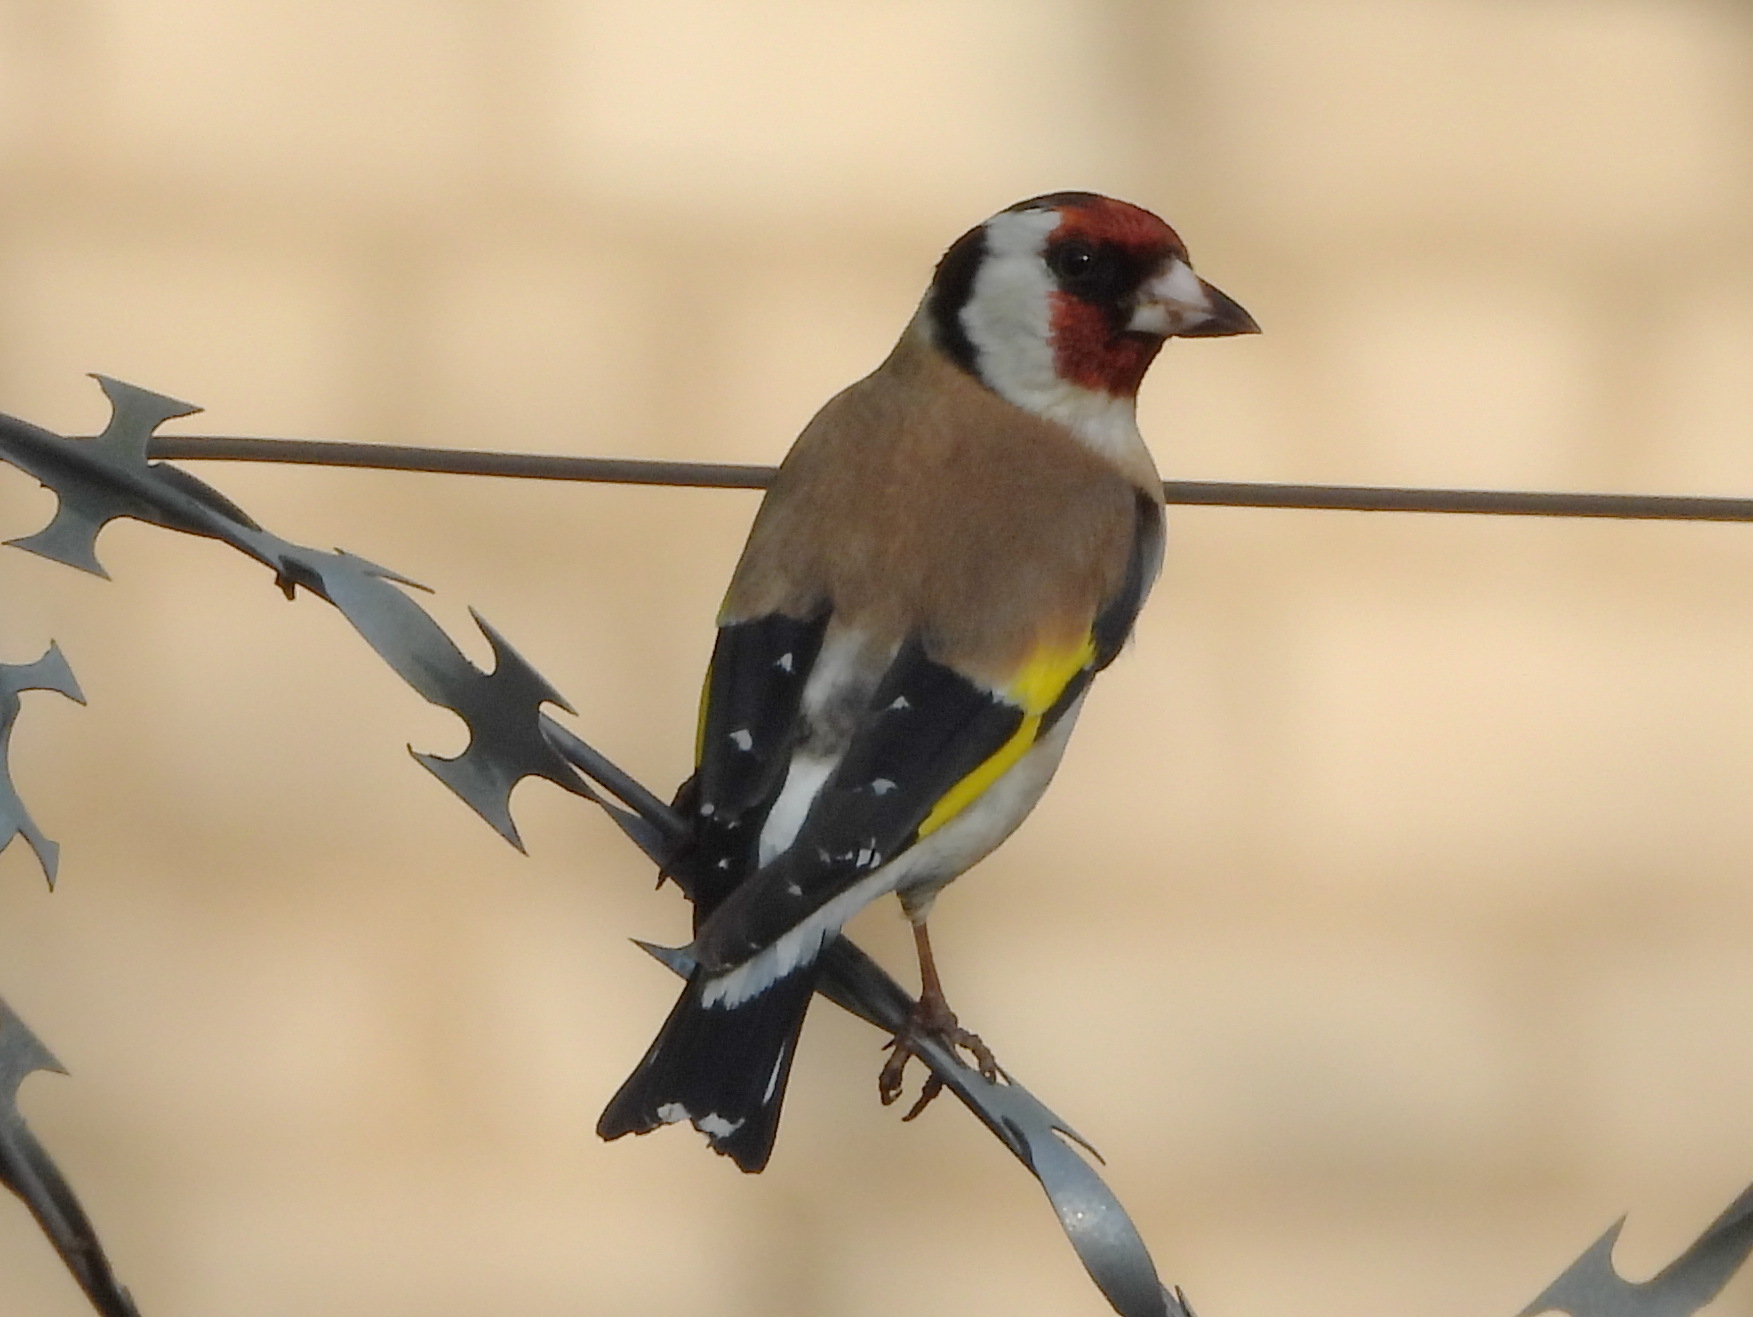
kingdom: Animalia
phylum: Chordata
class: Aves
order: Passeriformes
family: Fringillidae
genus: Carduelis
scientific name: Carduelis carduelis
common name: European goldfinch
